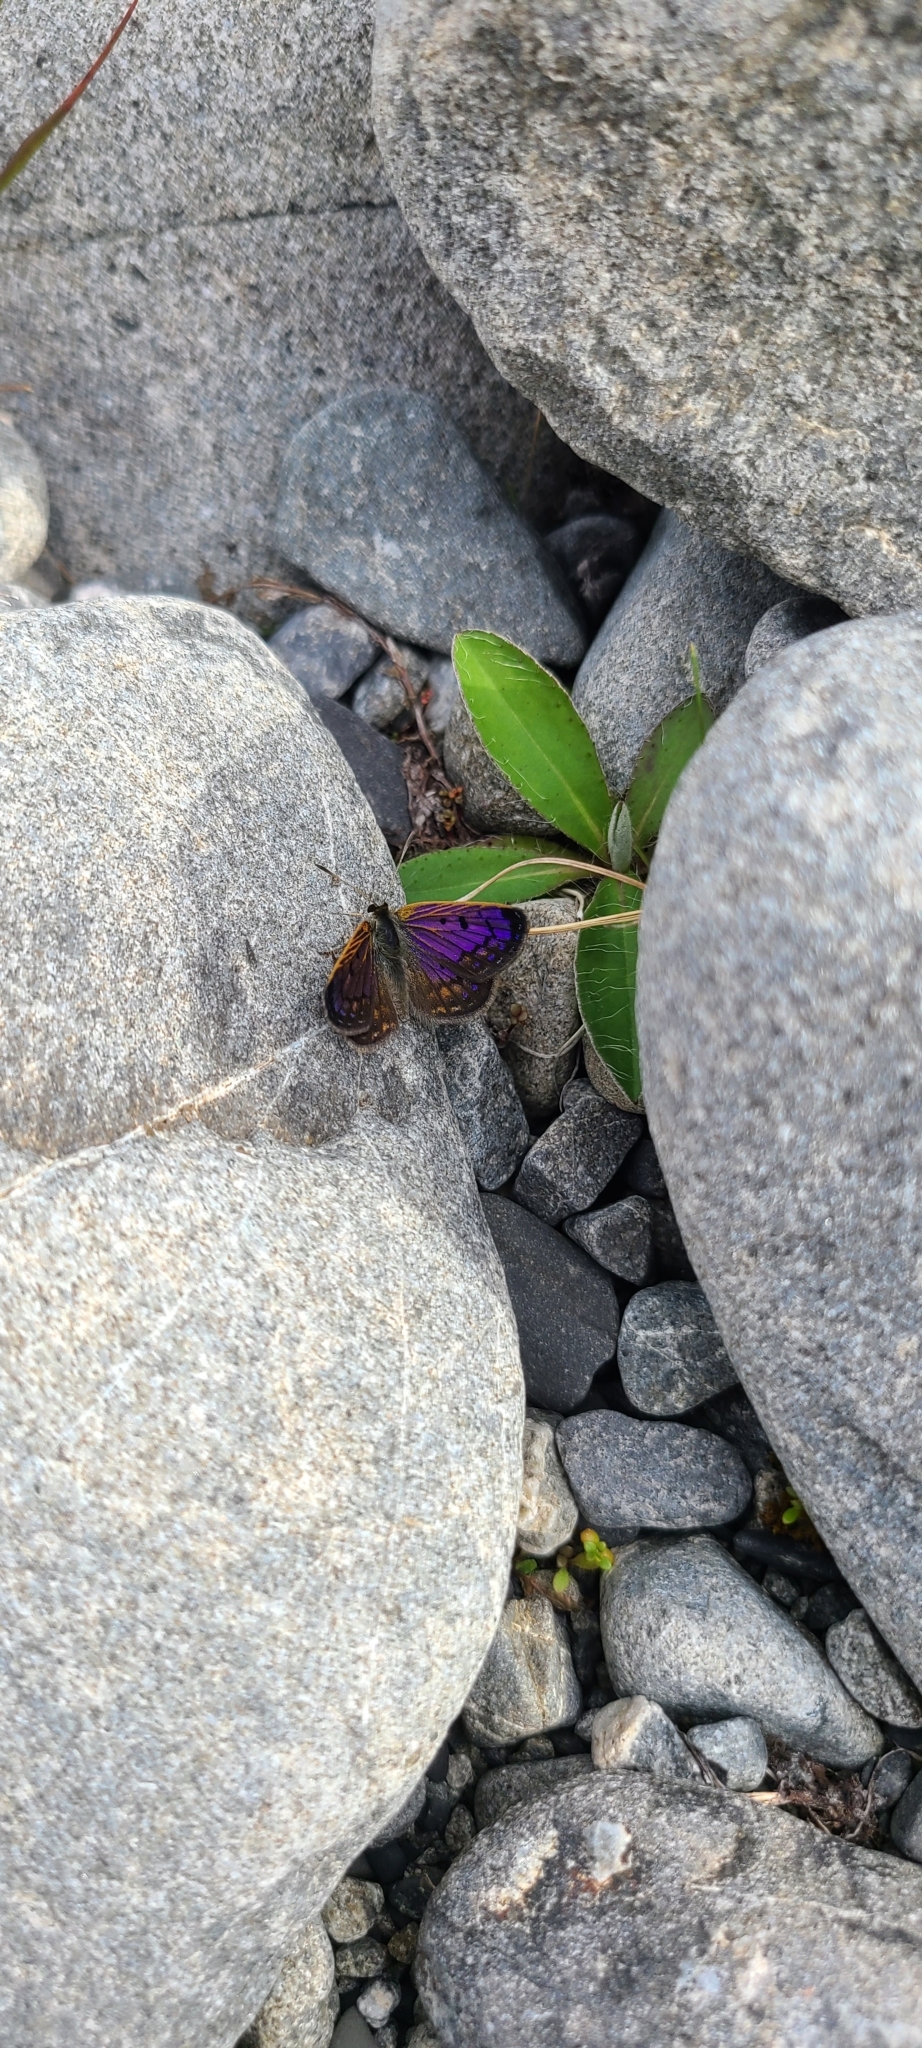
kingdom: Animalia
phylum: Arthropoda
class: Insecta
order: Lepidoptera
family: Lycaenidae
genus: Lycaena
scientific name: Lycaena tama
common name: Canterbury alpine boulder copper
